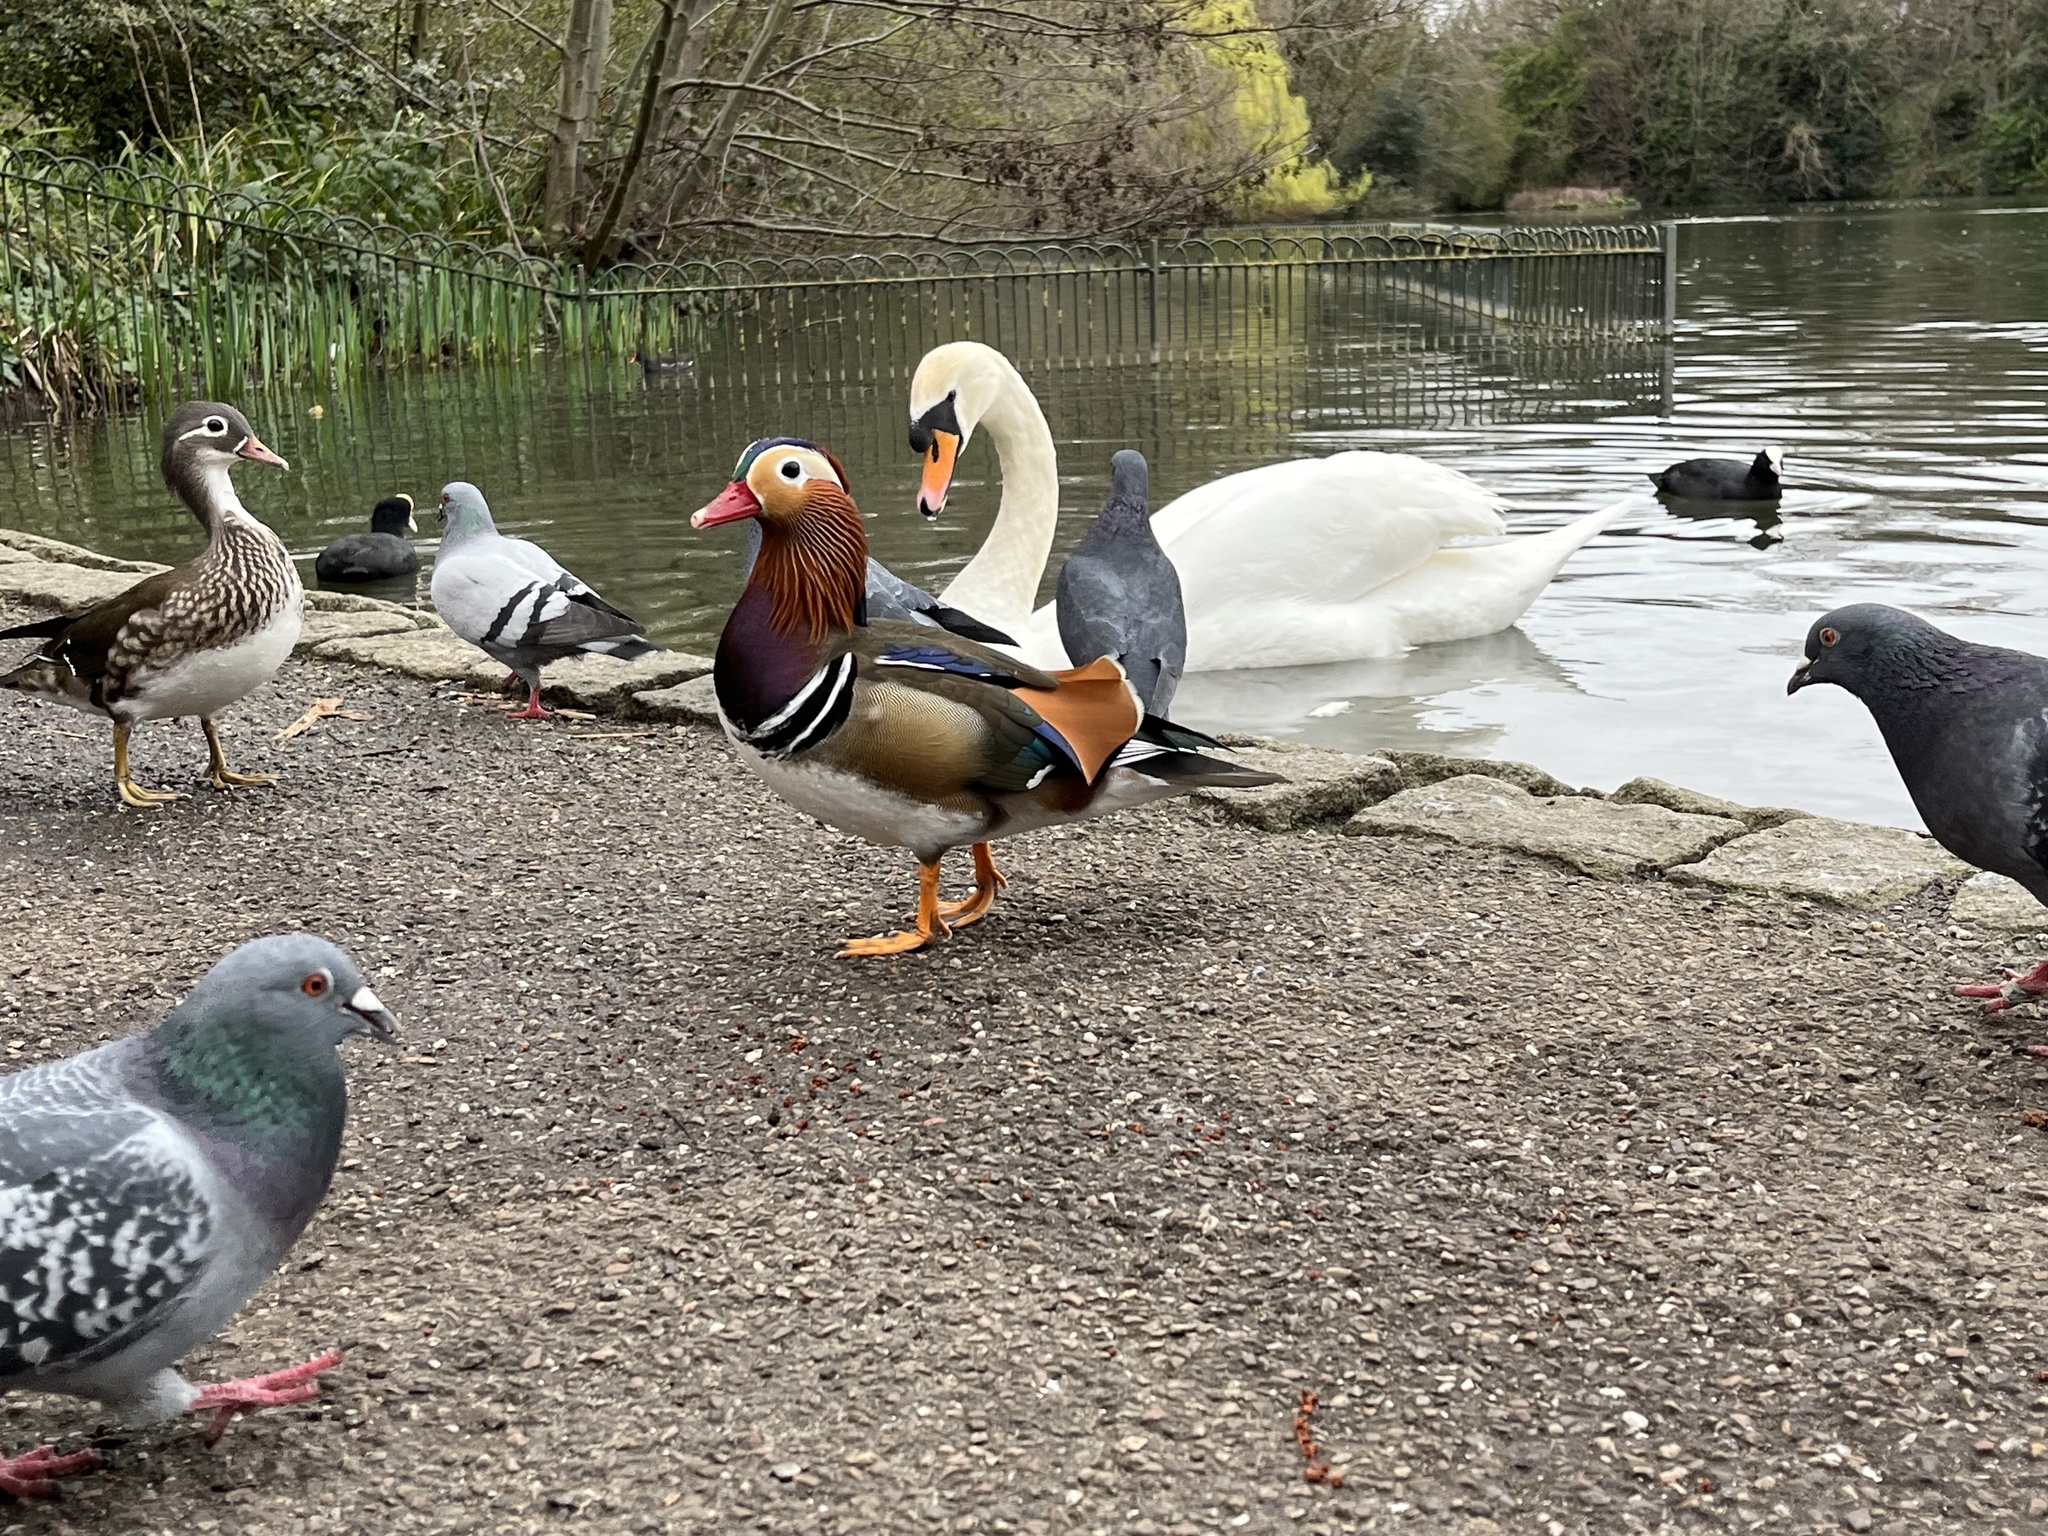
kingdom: Animalia
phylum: Chordata
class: Aves
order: Anseriformes
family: Anatidae
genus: Aix
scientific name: Aix galericulata
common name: Mandarin duck
